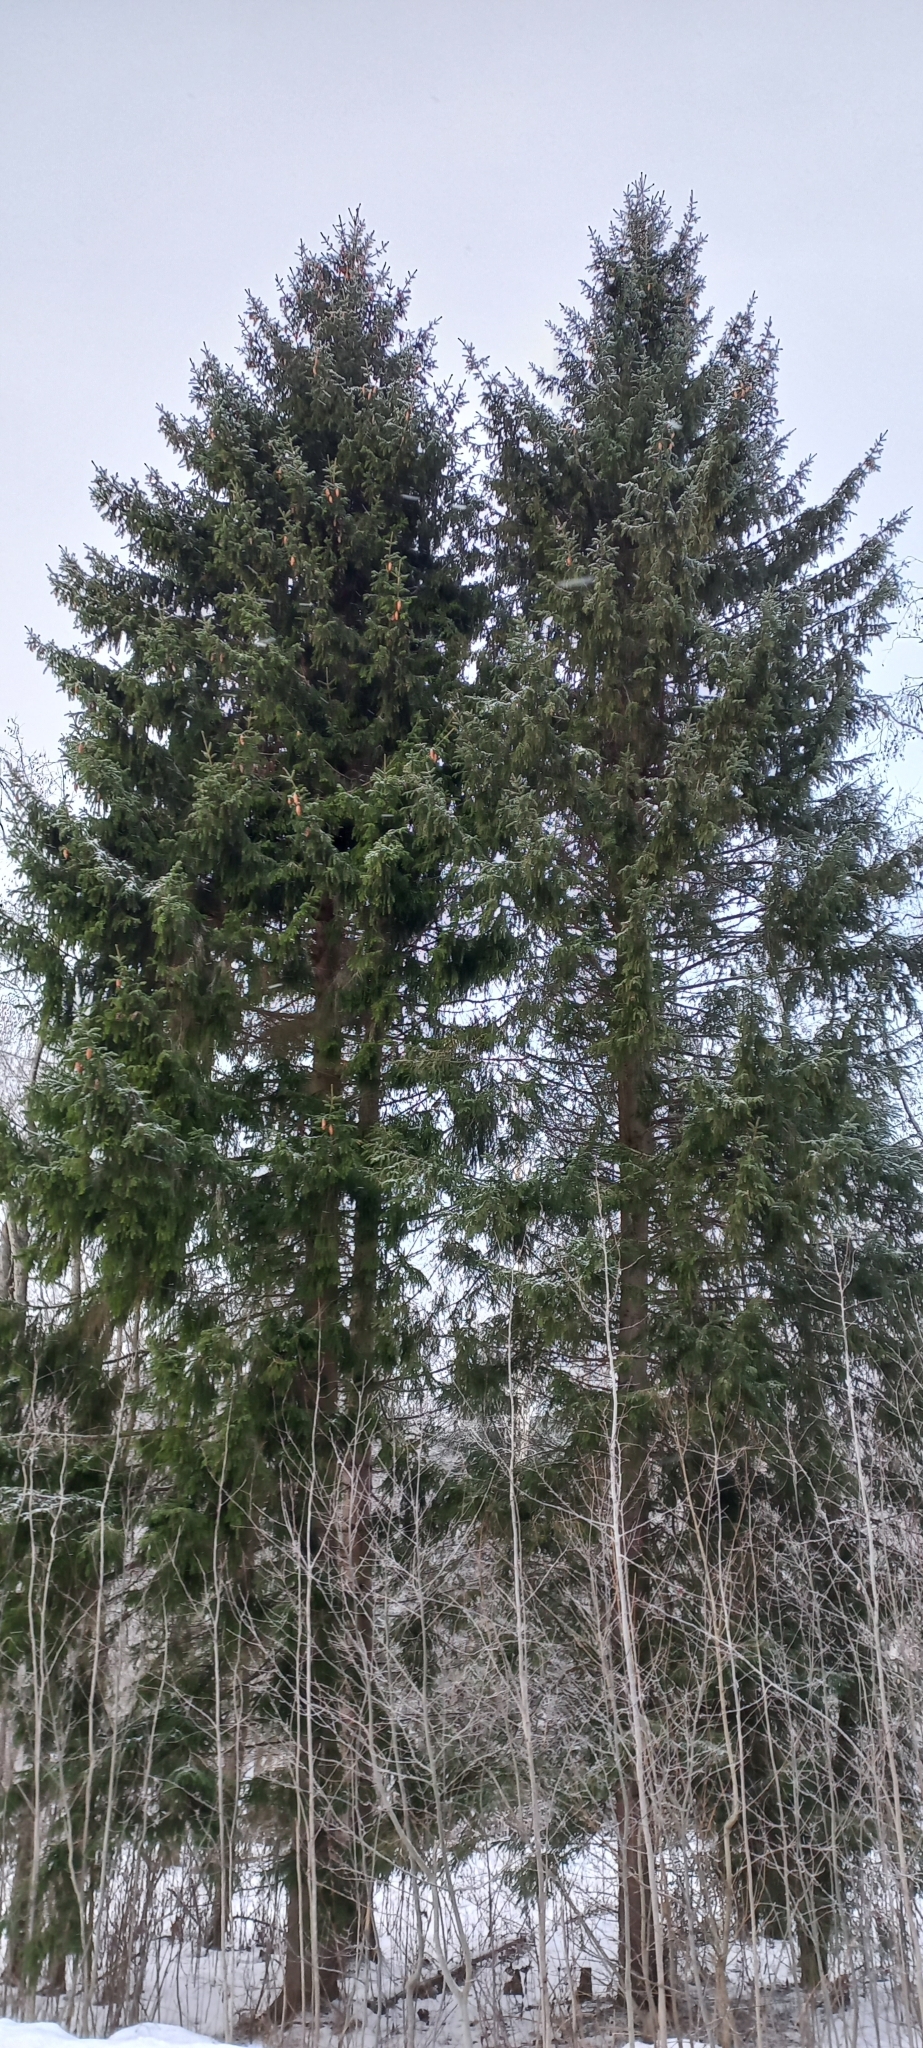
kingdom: Plantae
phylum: Tracheophyta
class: Pinopsida
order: Pinales
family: Pinaceae
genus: Picea
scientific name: Picea abies
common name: Norway spruce
